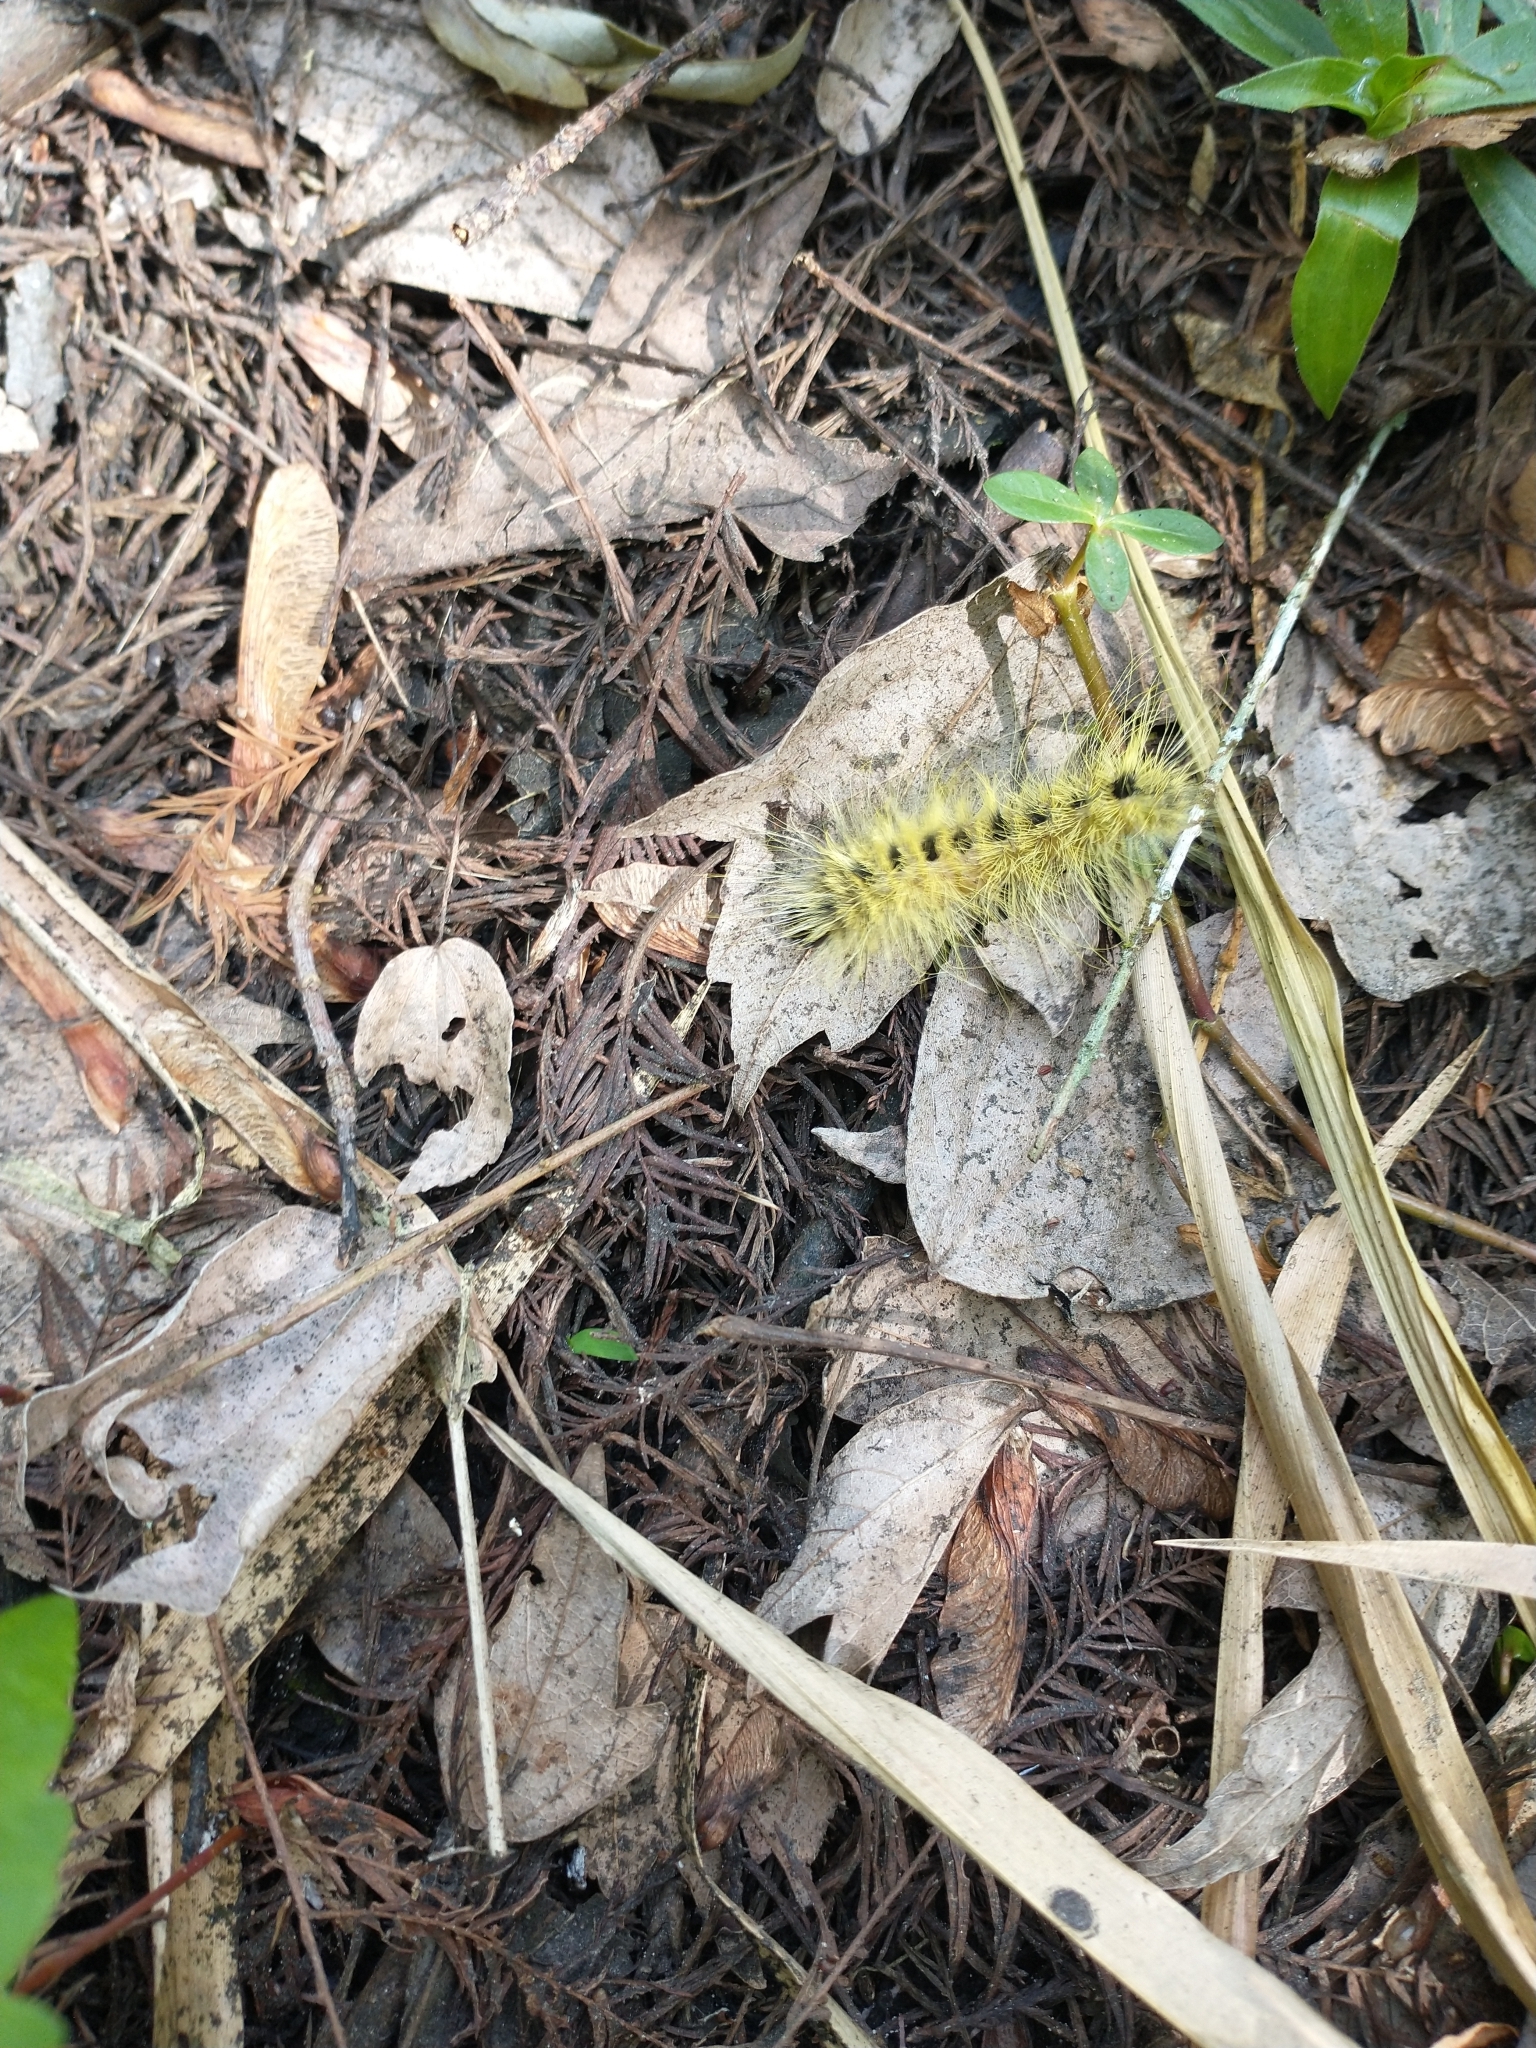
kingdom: Animalia
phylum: Arthropoda
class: Insecta
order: Lepidoptera
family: Noctuidae
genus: Acronicta
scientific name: Acronicta rubricoma
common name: Hackberry dagger
